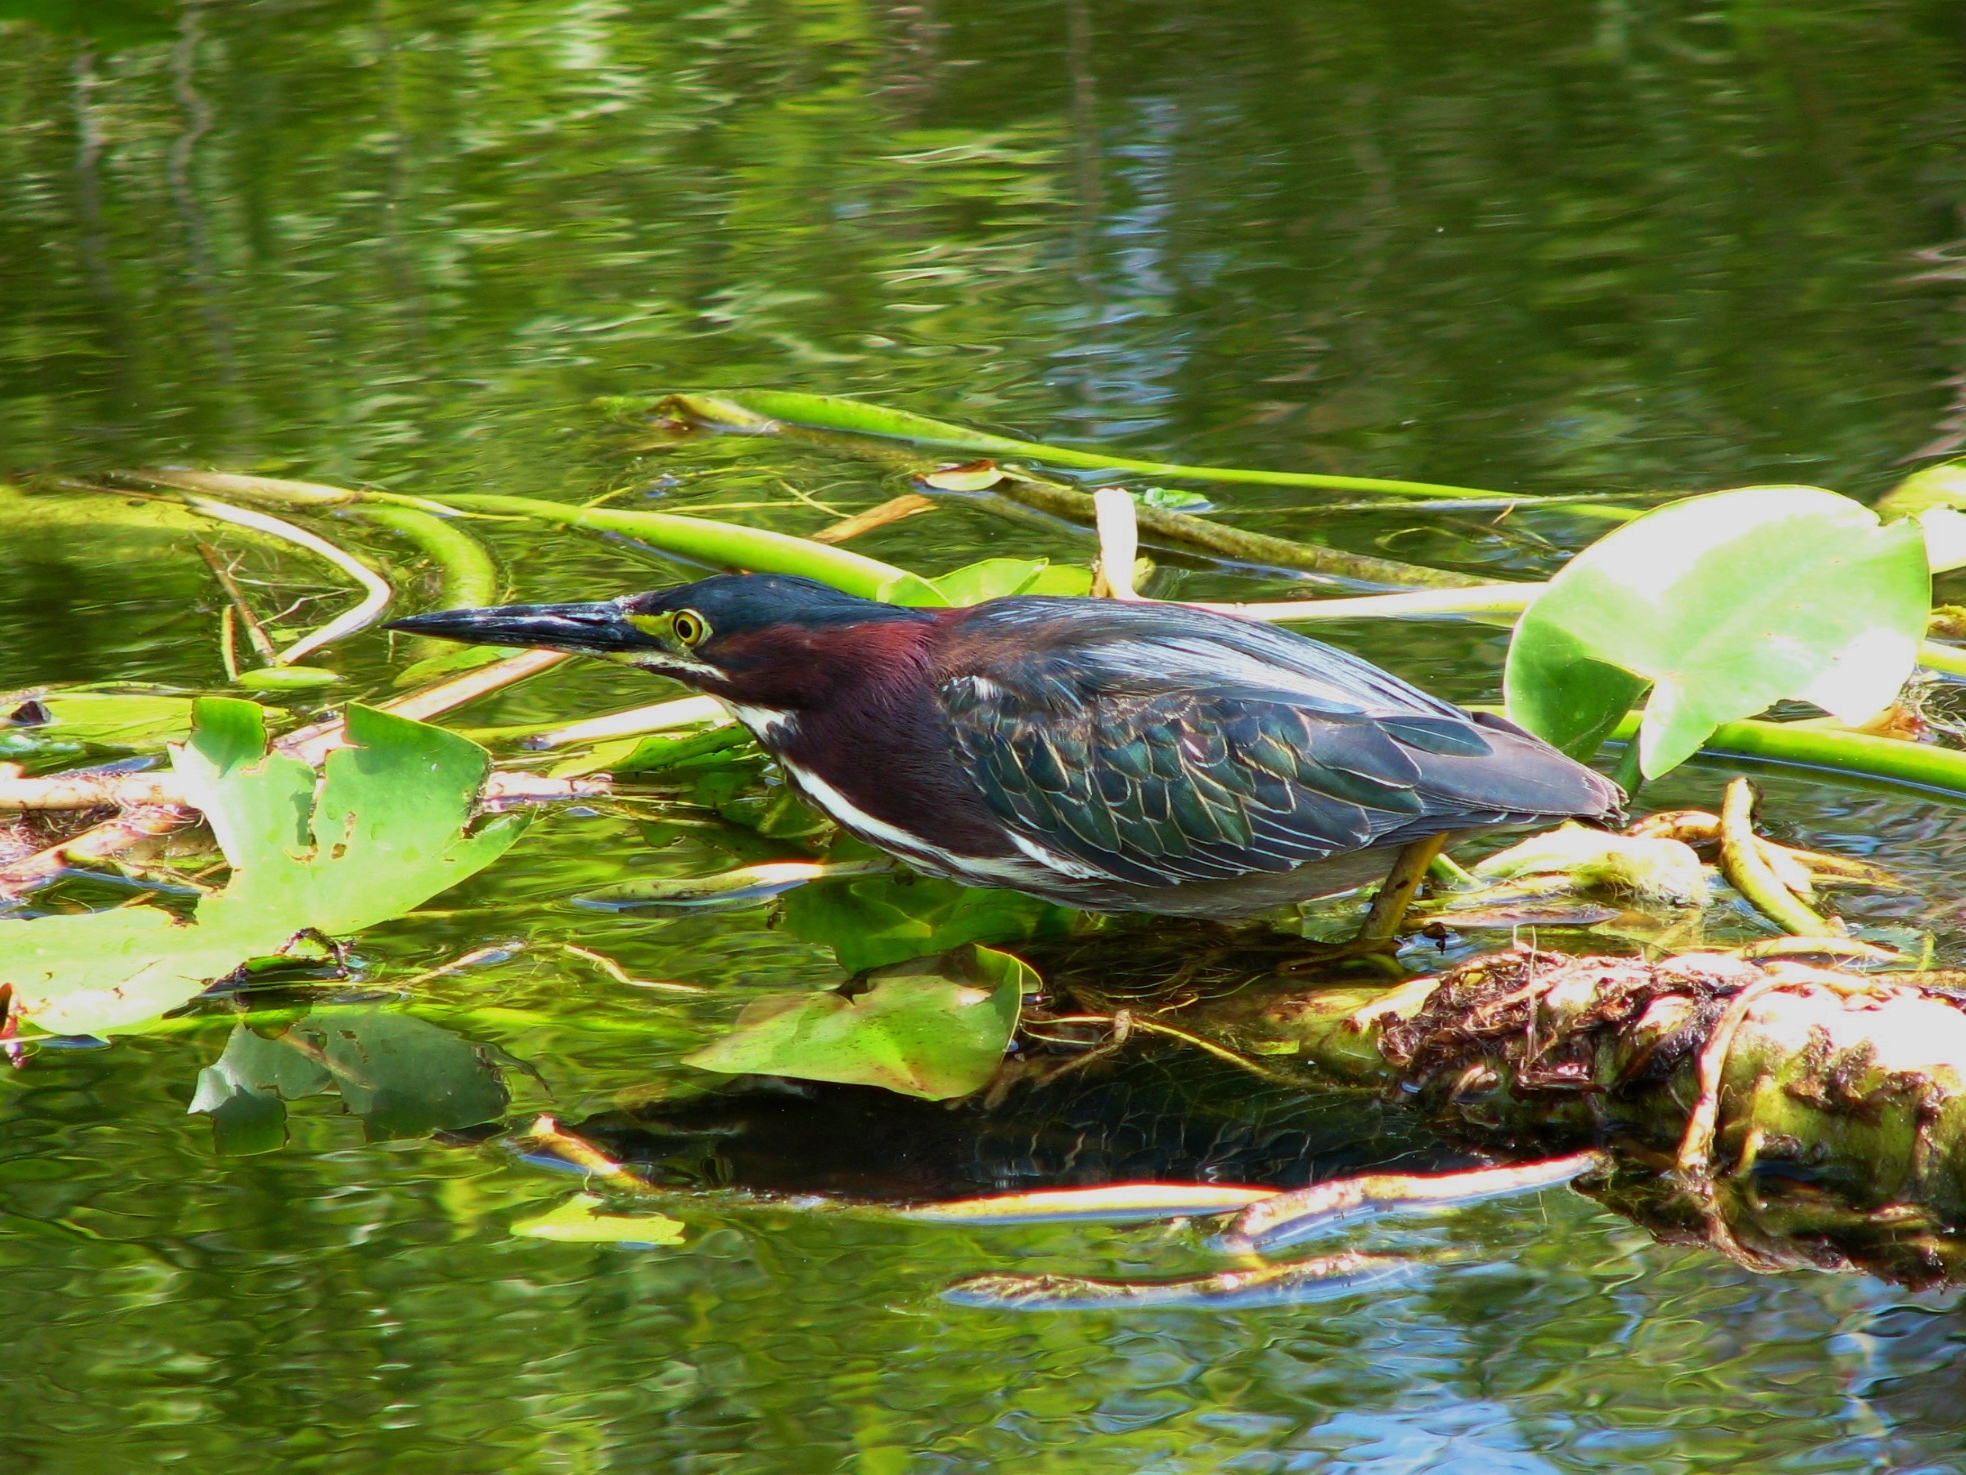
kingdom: Animalia
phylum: Chordata
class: Aves
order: Pelecaniformes
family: Ardeidae
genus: Butorides
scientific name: Butorides virescens
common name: Green heron
